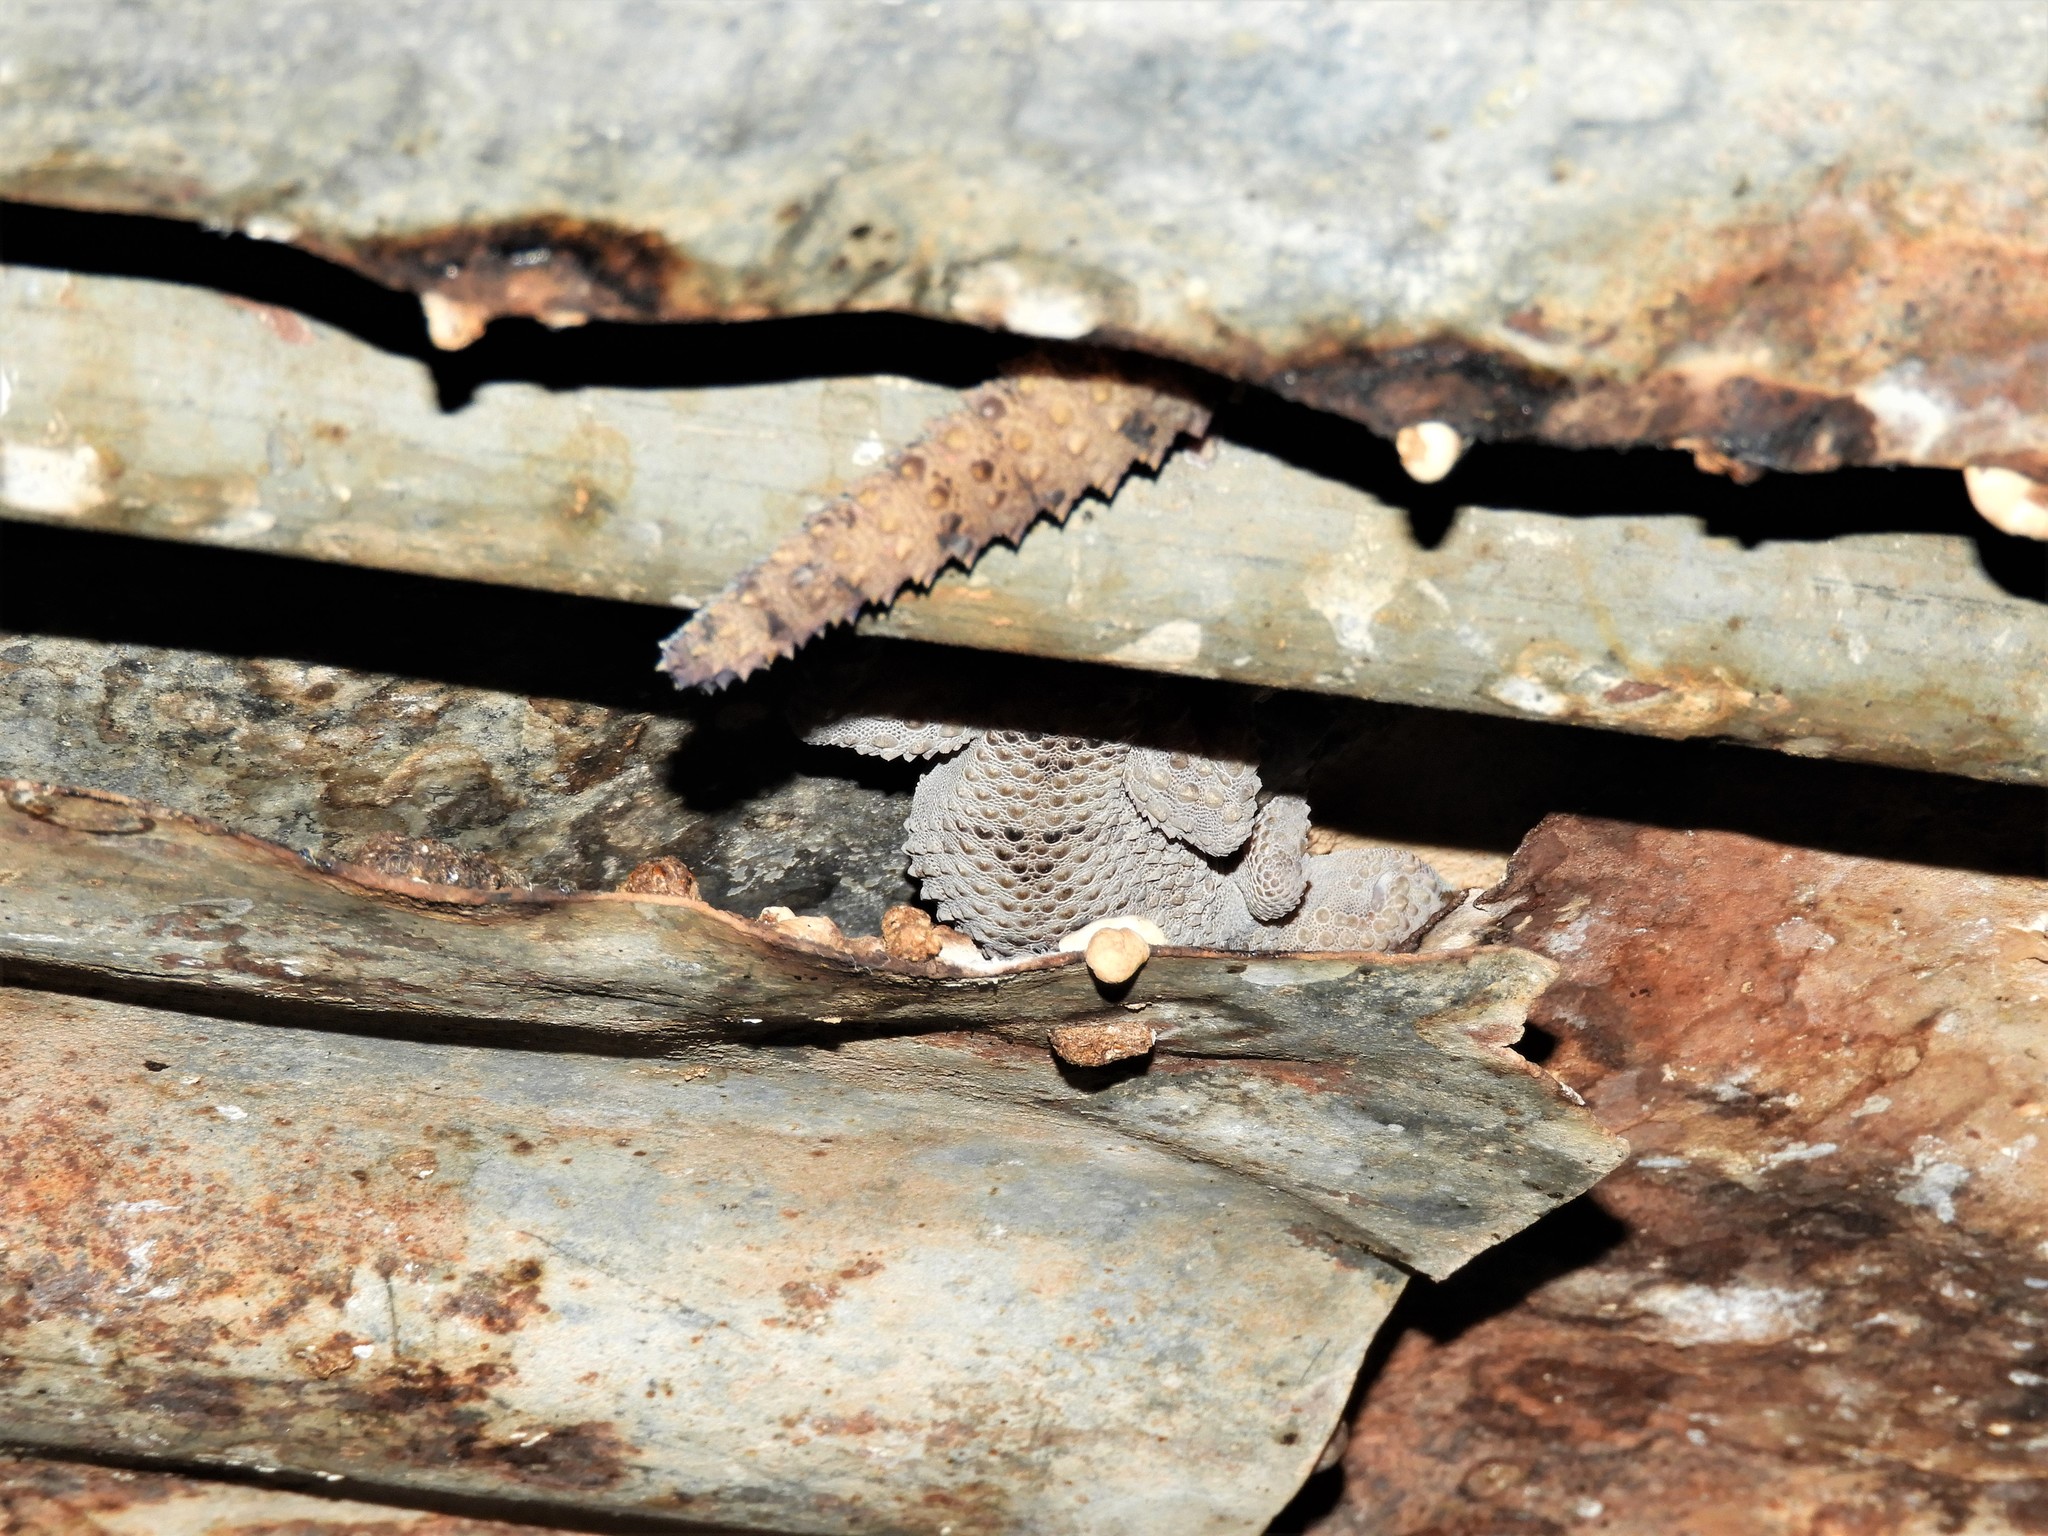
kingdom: Animalia
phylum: Chordata
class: Squamata
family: Gekkonidae
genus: Chondrodactylus
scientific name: Chondrodactylus bibronii
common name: Bibron's gecko
